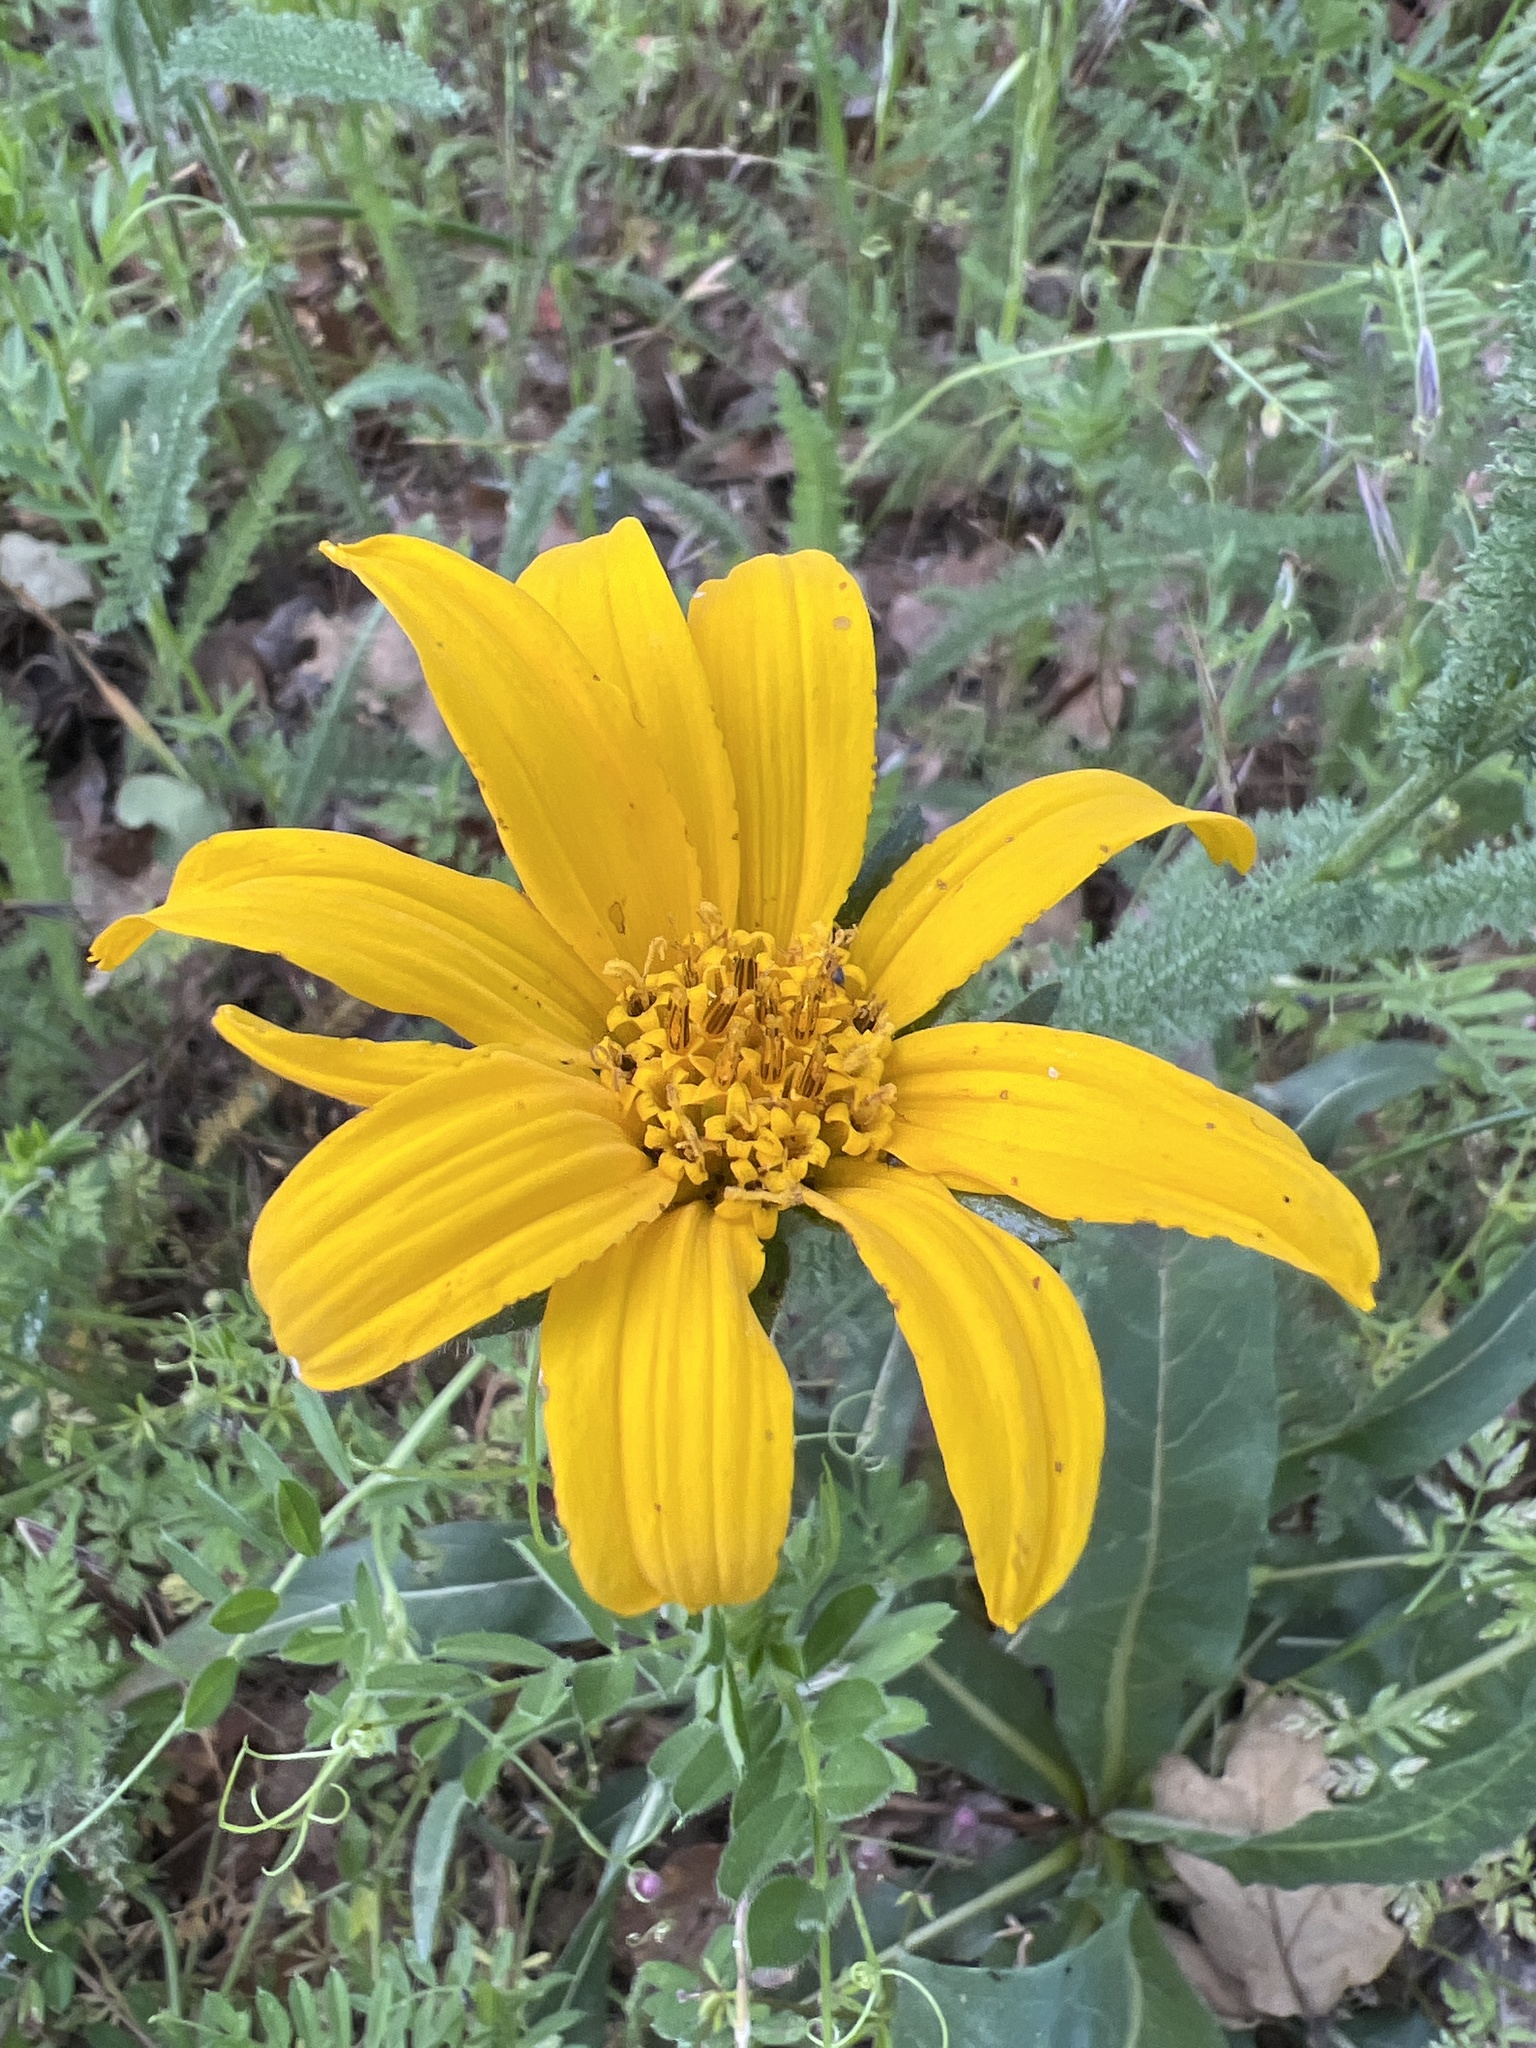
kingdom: Plantae
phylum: Tracheophyta
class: Magnoliopsida
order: Asterales
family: Asteraceae
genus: Wyethia
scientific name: Wyethia angustifolia
